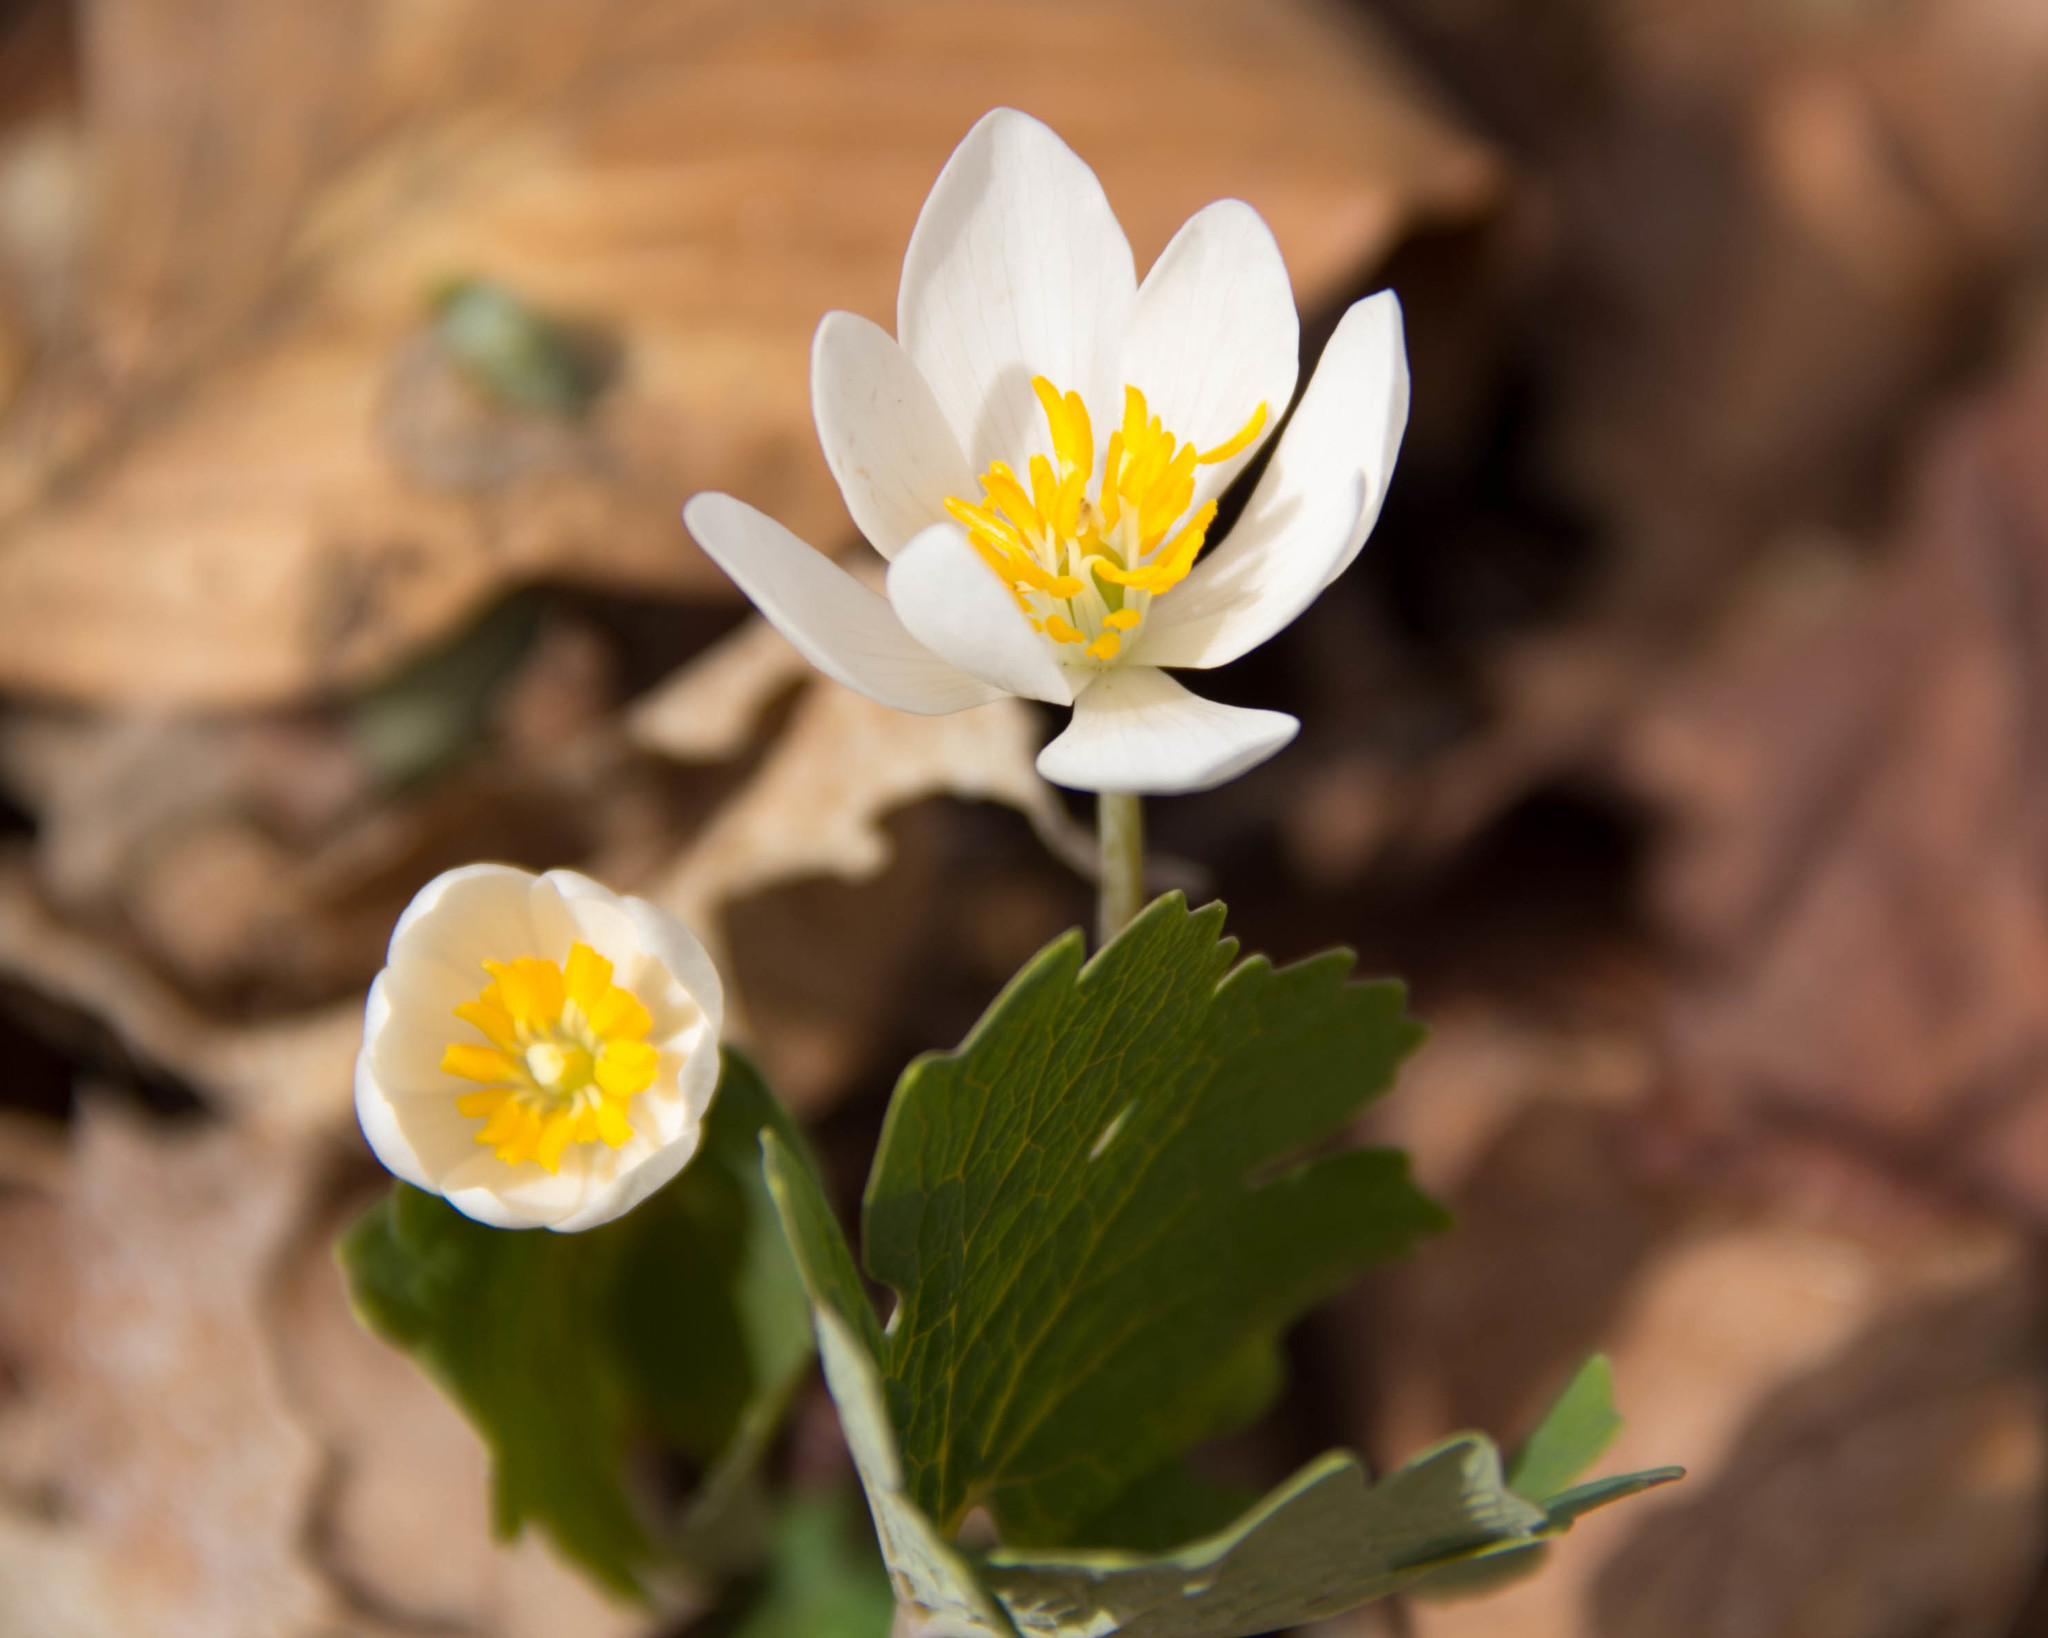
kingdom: Plantae
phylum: Tracheophyta
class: Magnoliopsida
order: Ranunculales
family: Papaveraceae
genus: Sanguinaria
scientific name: Sanguinaria canadensis
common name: Bloodroot
